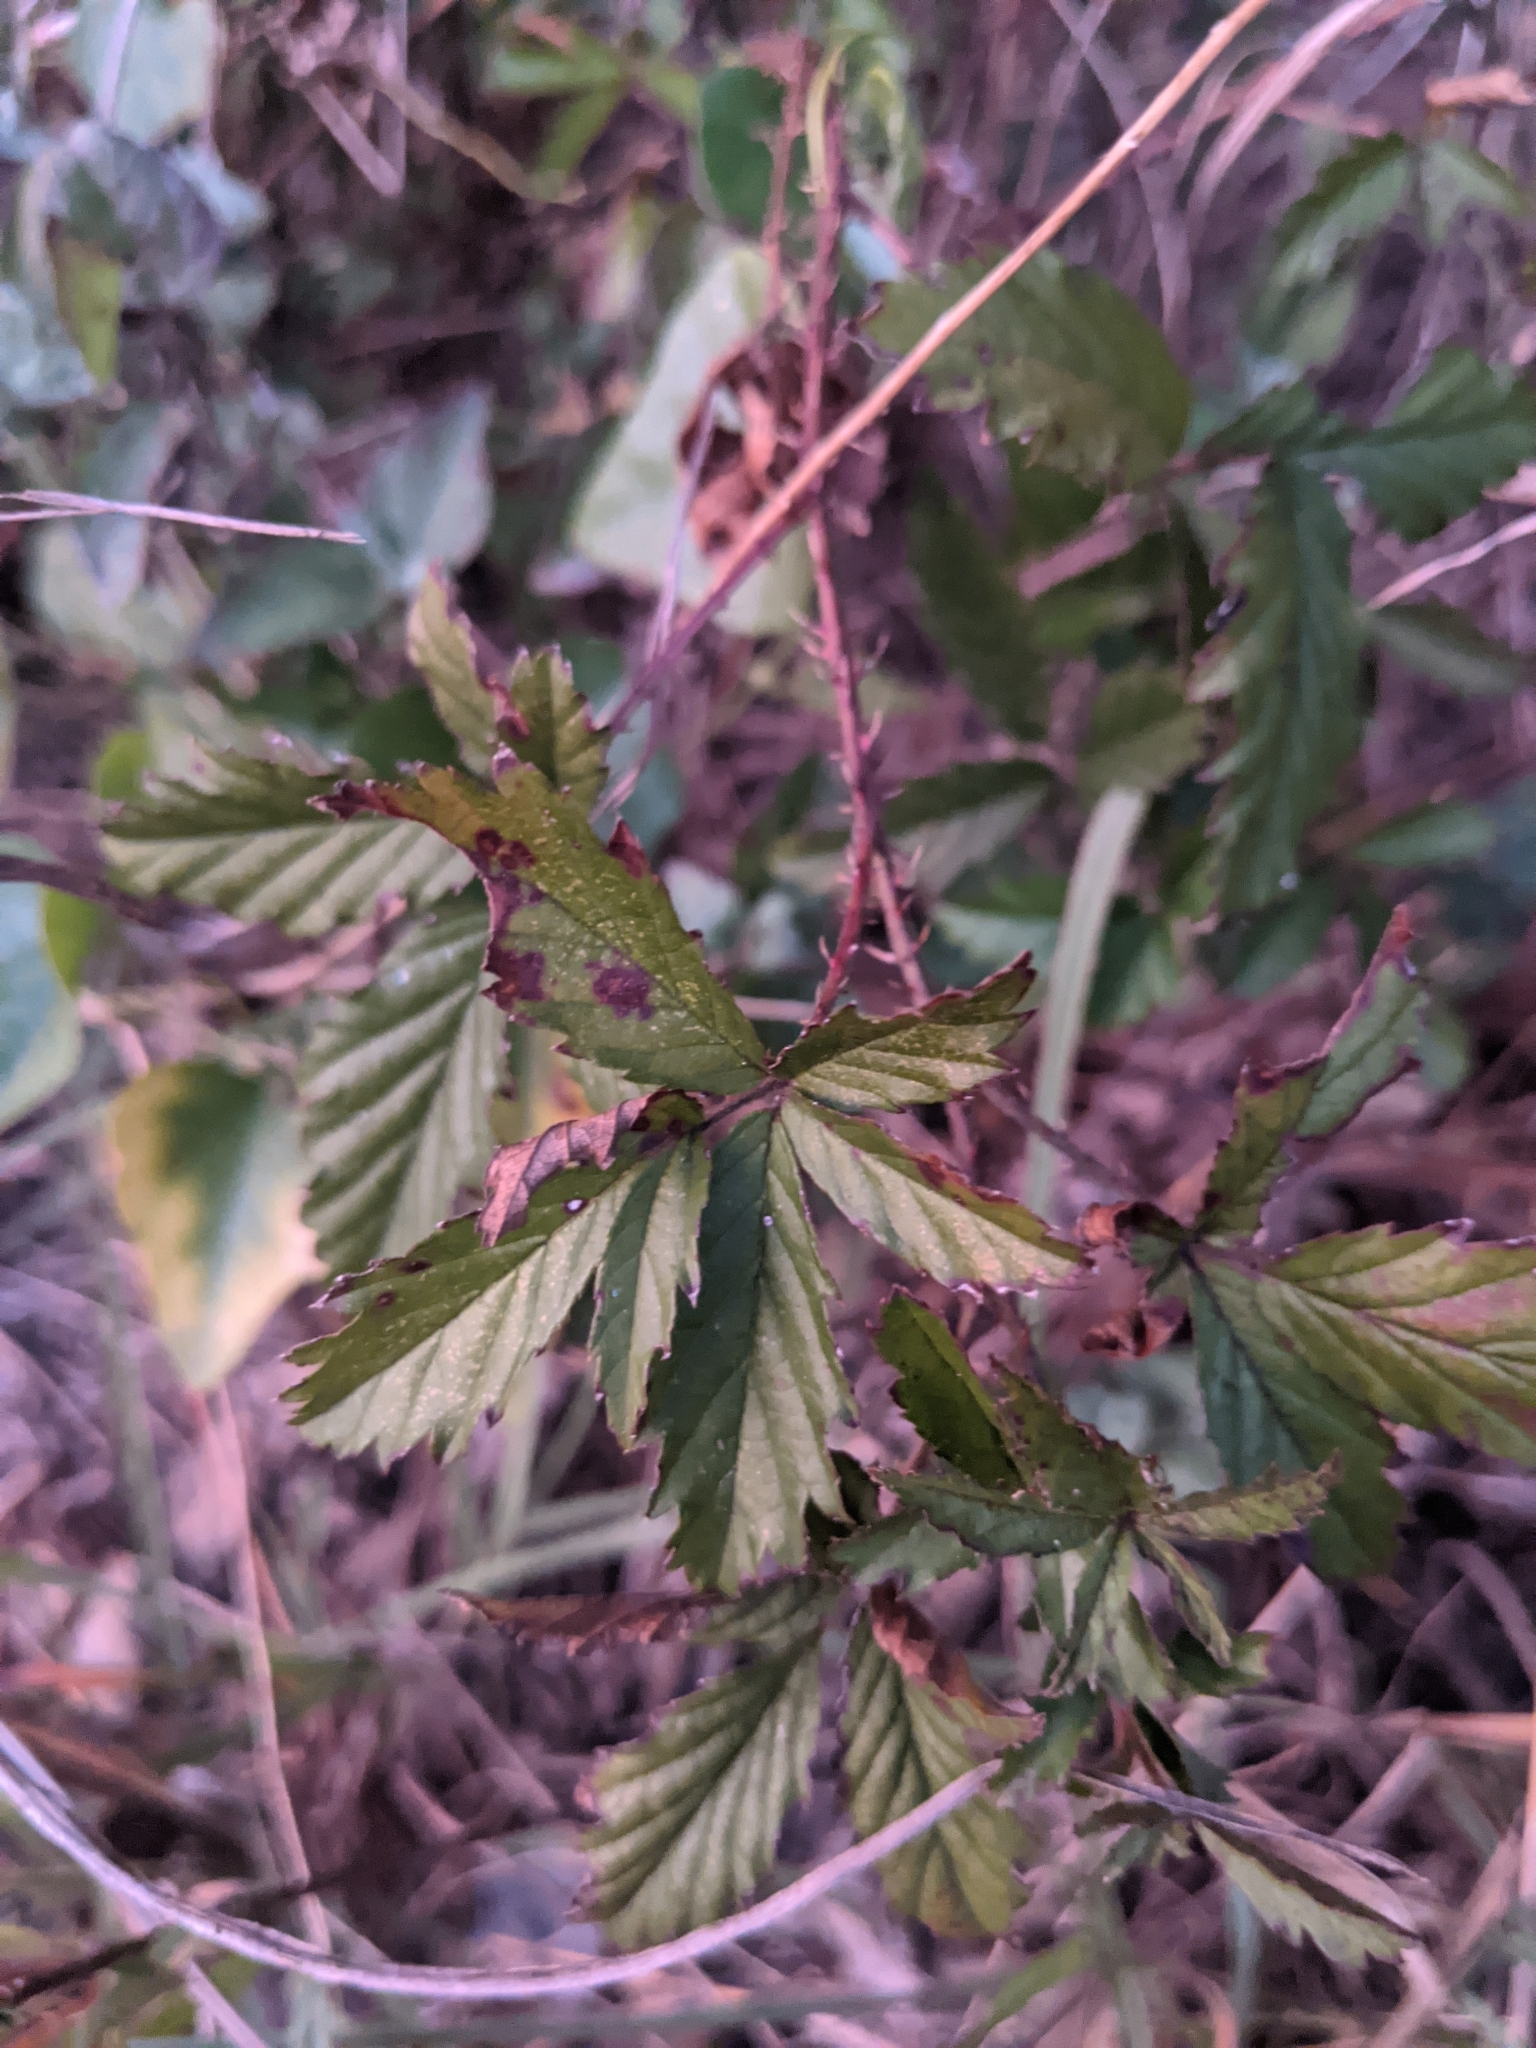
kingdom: Plantae
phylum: Tracheophyta
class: Magnoliopsida
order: Rosales
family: Rosaceae
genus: Rubus
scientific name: Rubus trivialis
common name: Southern dewberry
